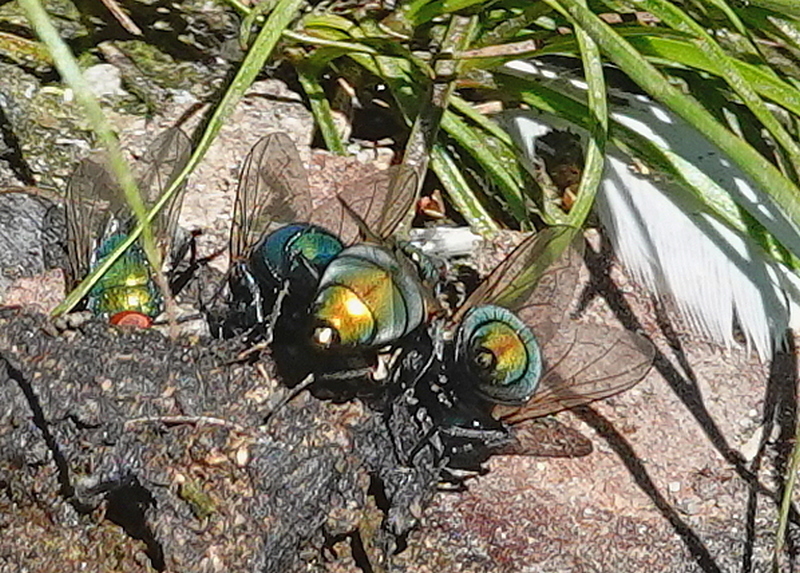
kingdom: Animalia
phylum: Arthropoda
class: Insecta
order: Diptera
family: Calliphoridae
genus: Lucilia
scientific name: Lucilia sericata
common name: Blow fly
